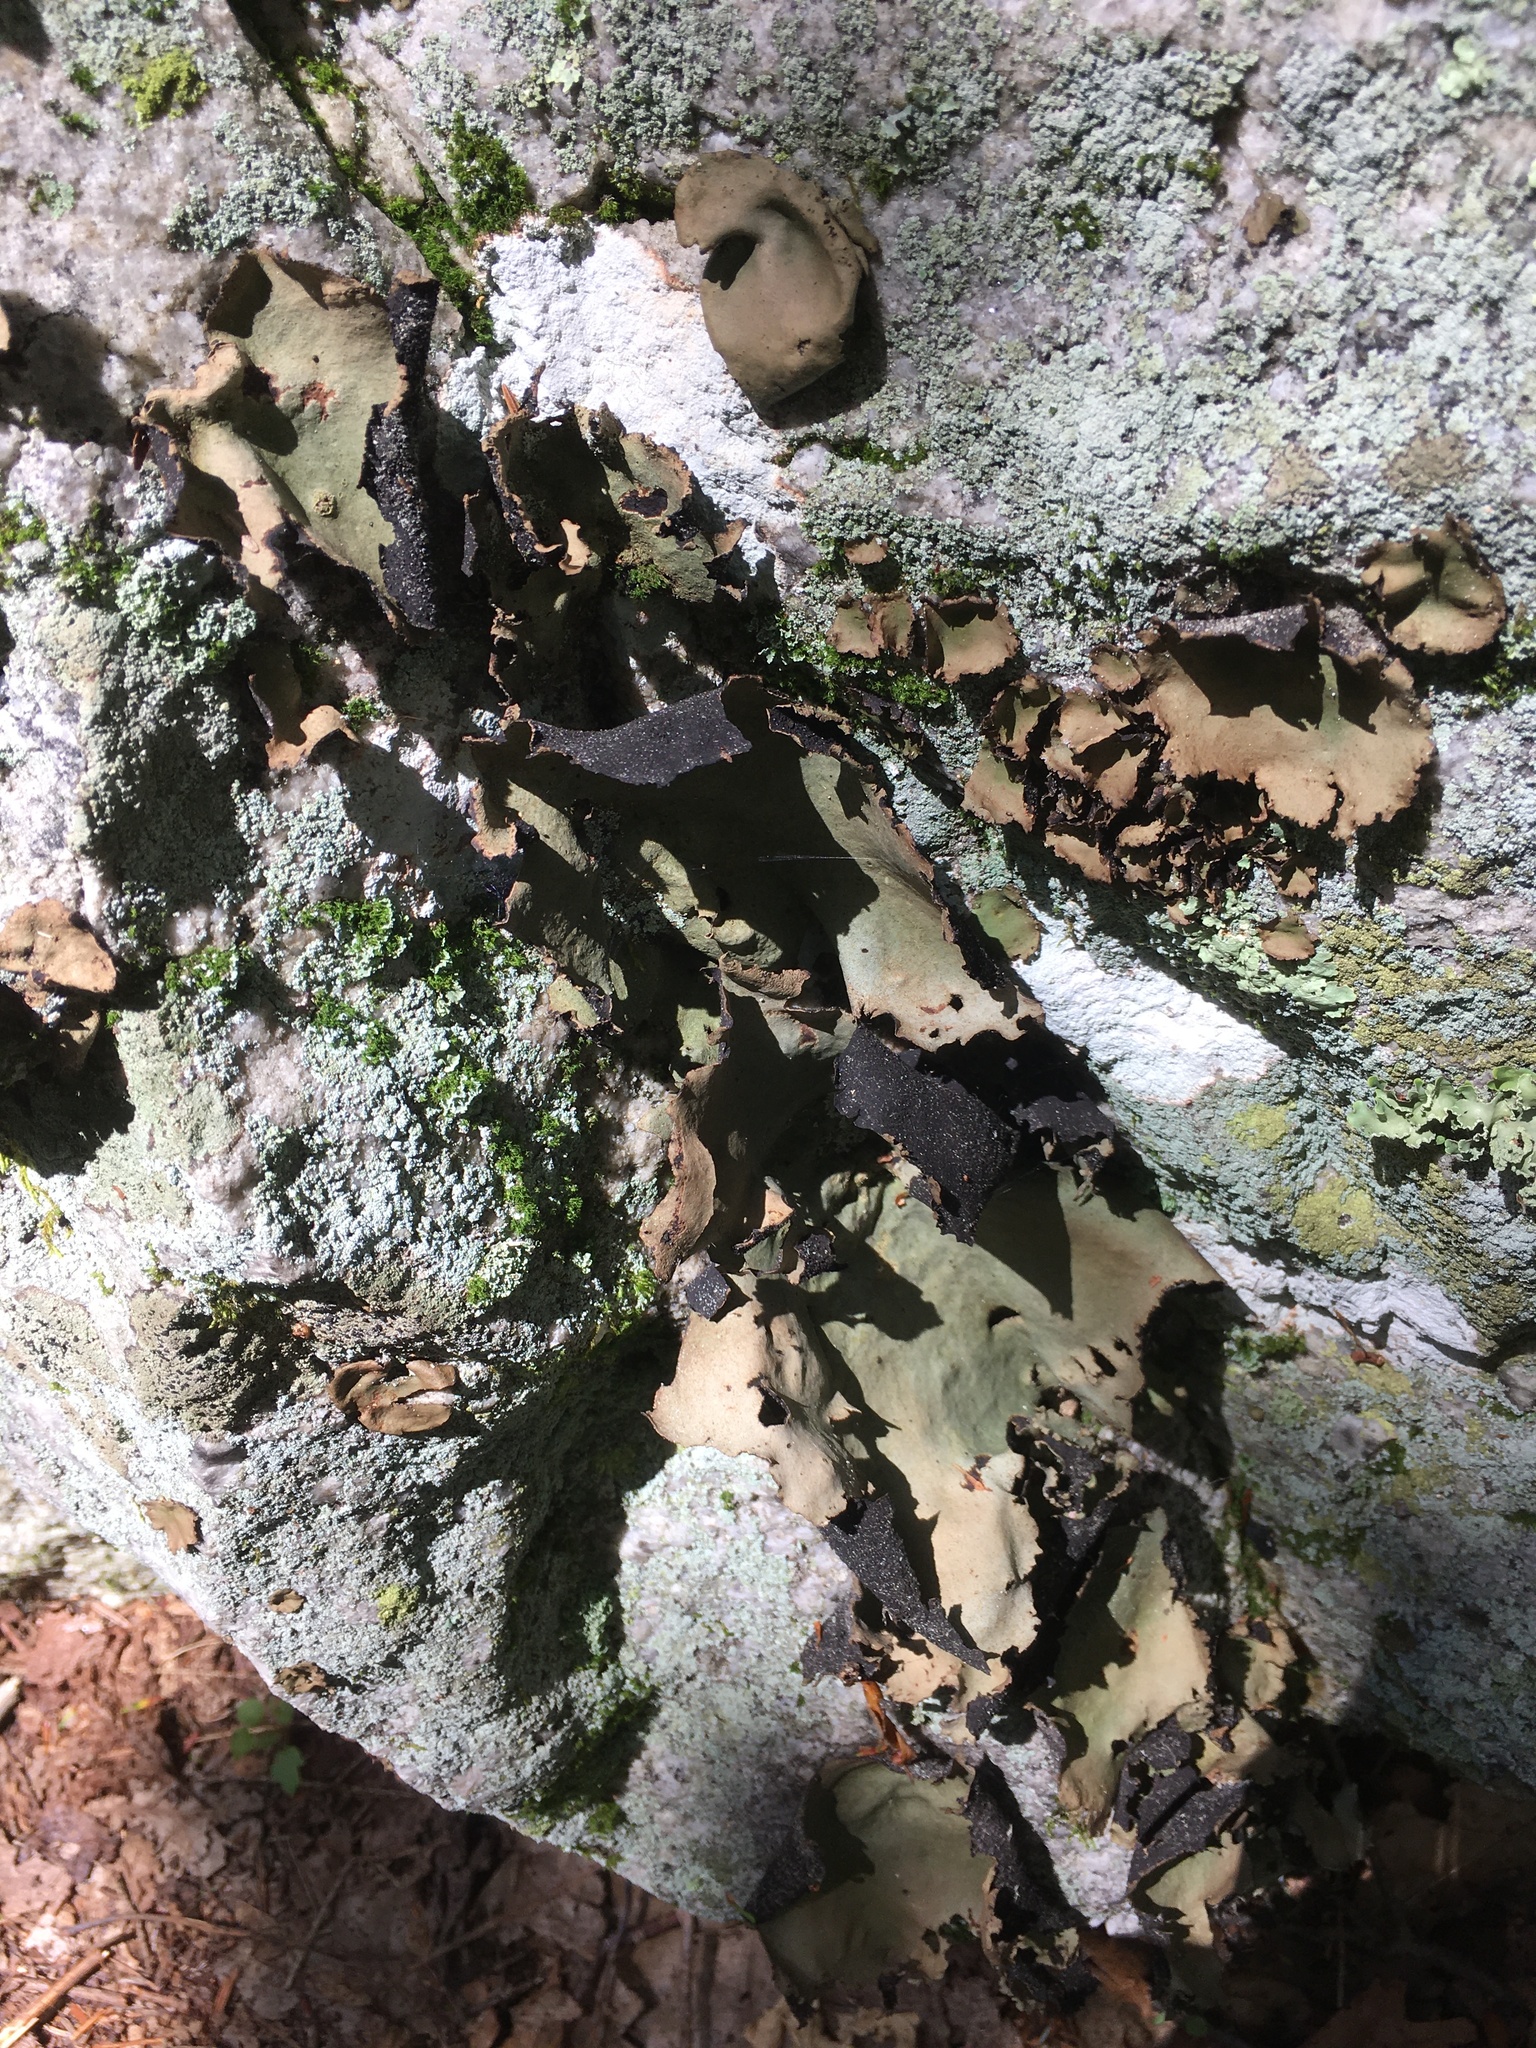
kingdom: Fungi
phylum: Ascomycota
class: Lecanoromycetes
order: Umbilicariales
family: Umbilicariaceae
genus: Umbilicaria
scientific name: Umbilicaria mammulata
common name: Smooth rock tripe
